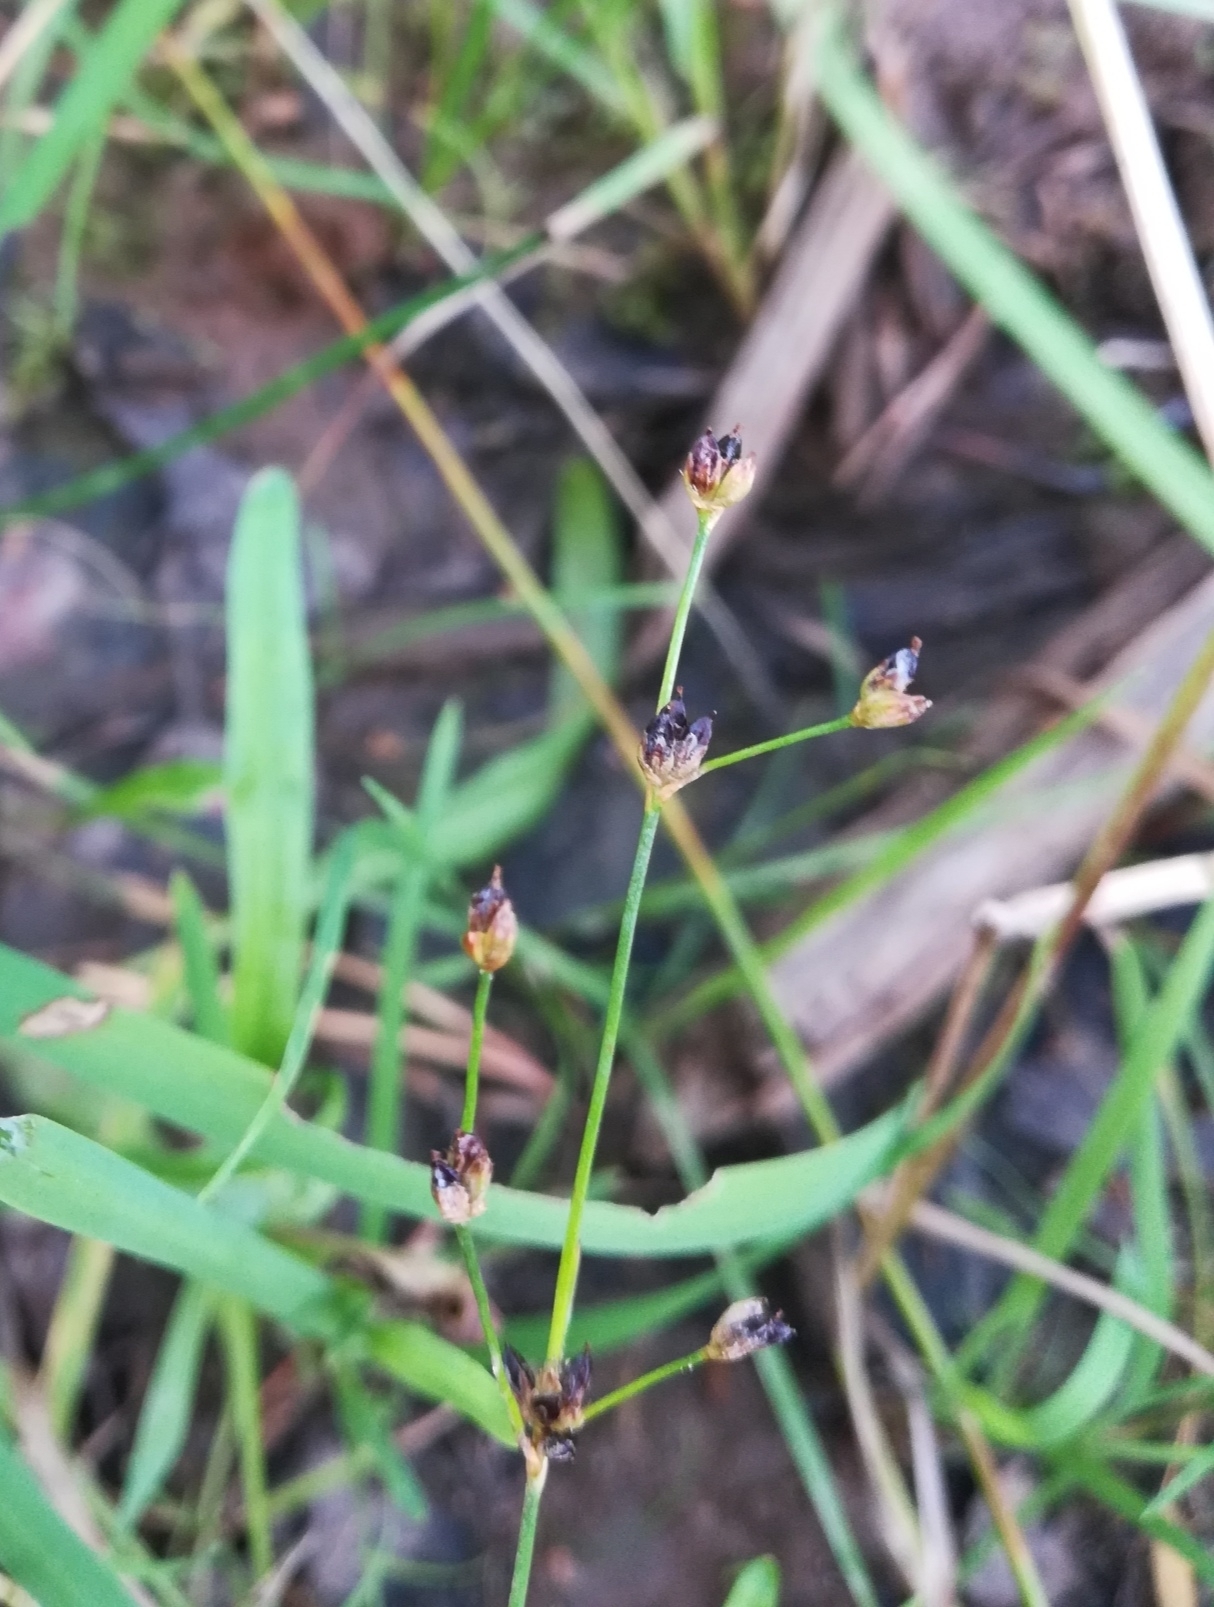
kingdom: Plantae
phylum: Tracheophyta
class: Liliopsida
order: Poales
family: Juncaceae
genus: Juncus
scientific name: Juncus alpinoarticulatus
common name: Alpine rush
